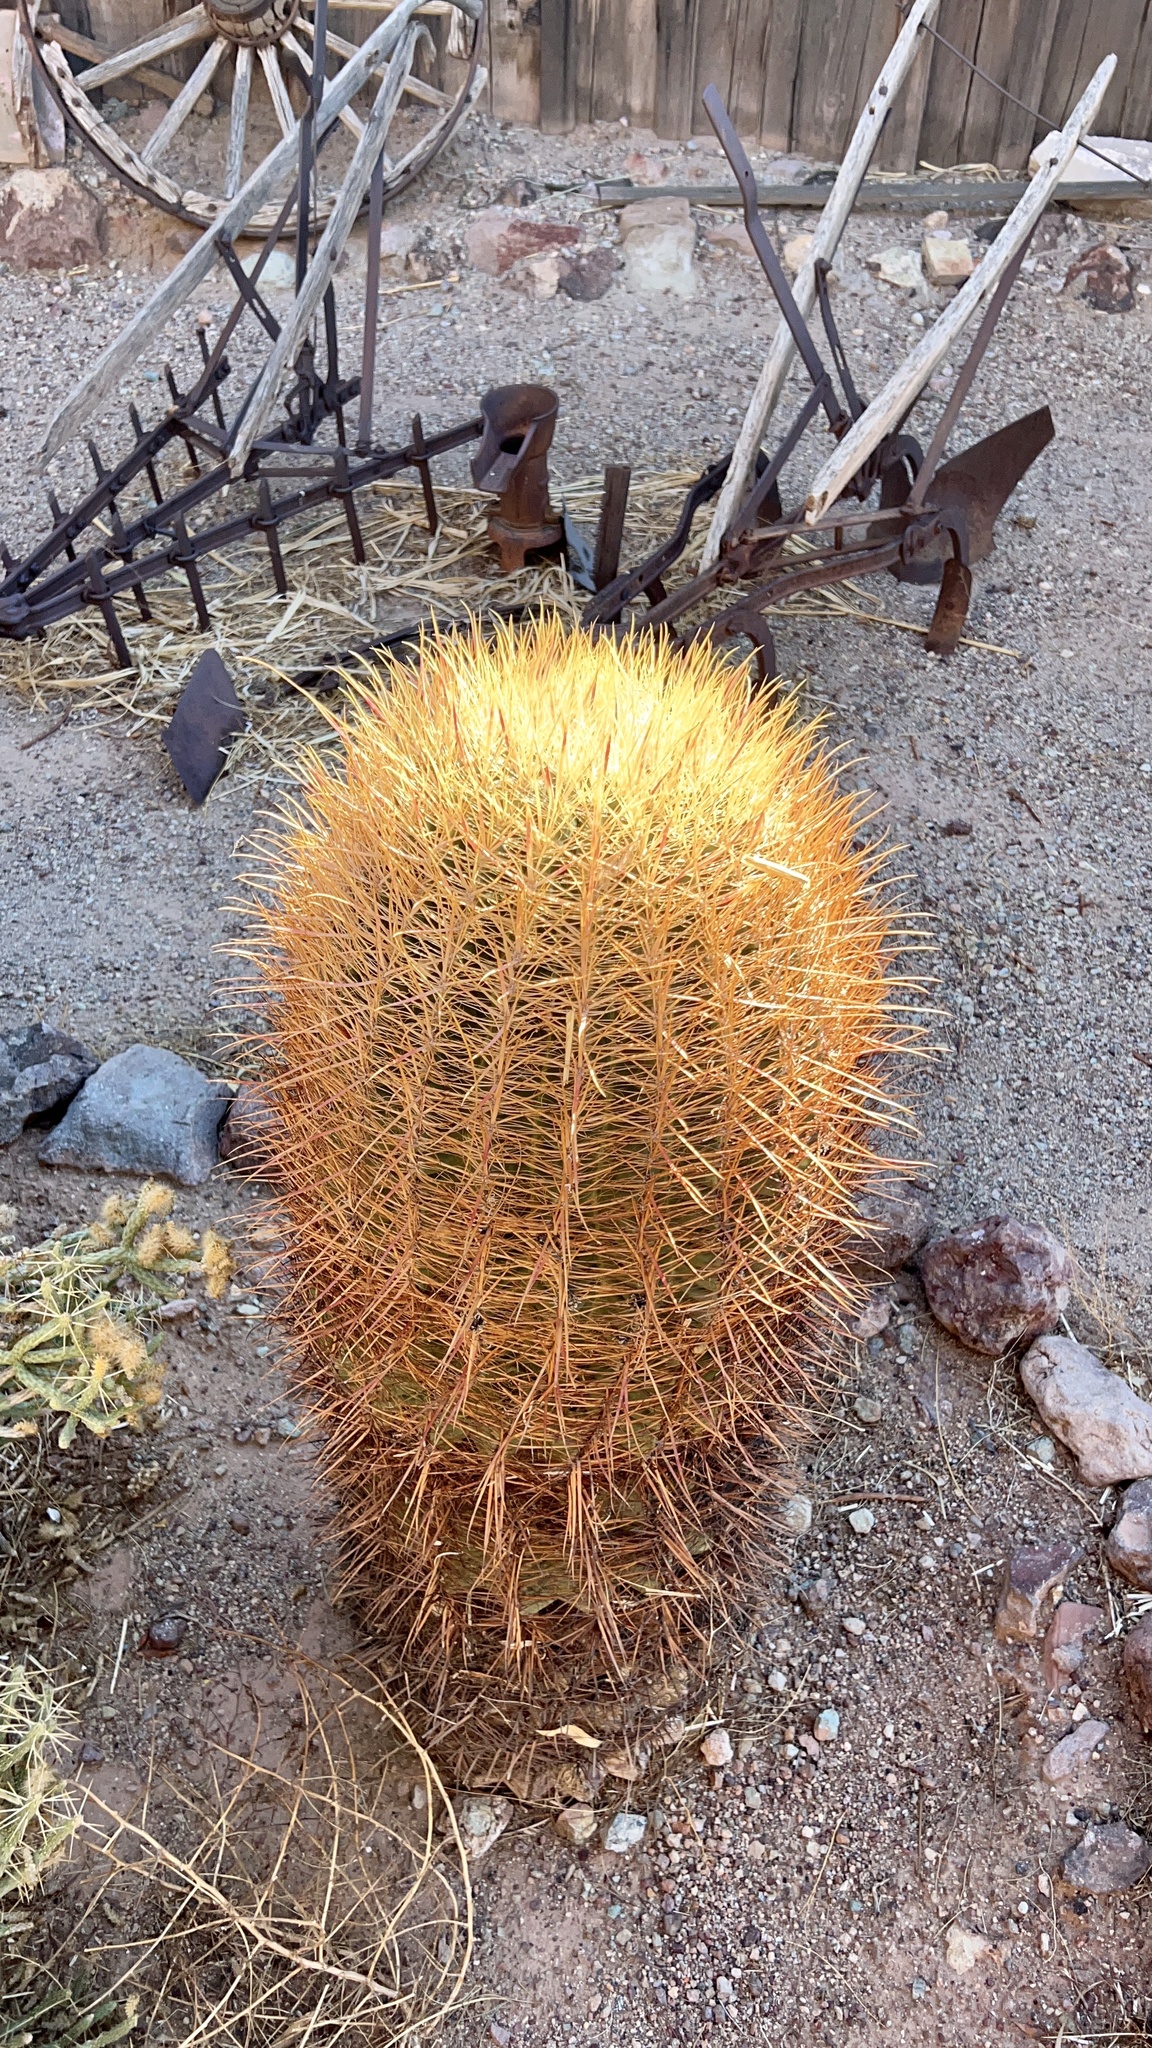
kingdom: Plantae
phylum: Tracheophyta
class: Magnoliopsida
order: Caryophyllales
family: Cactaceae
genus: Ferocactus
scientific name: Ferocactus cylindraceus
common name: California barrel cactus
